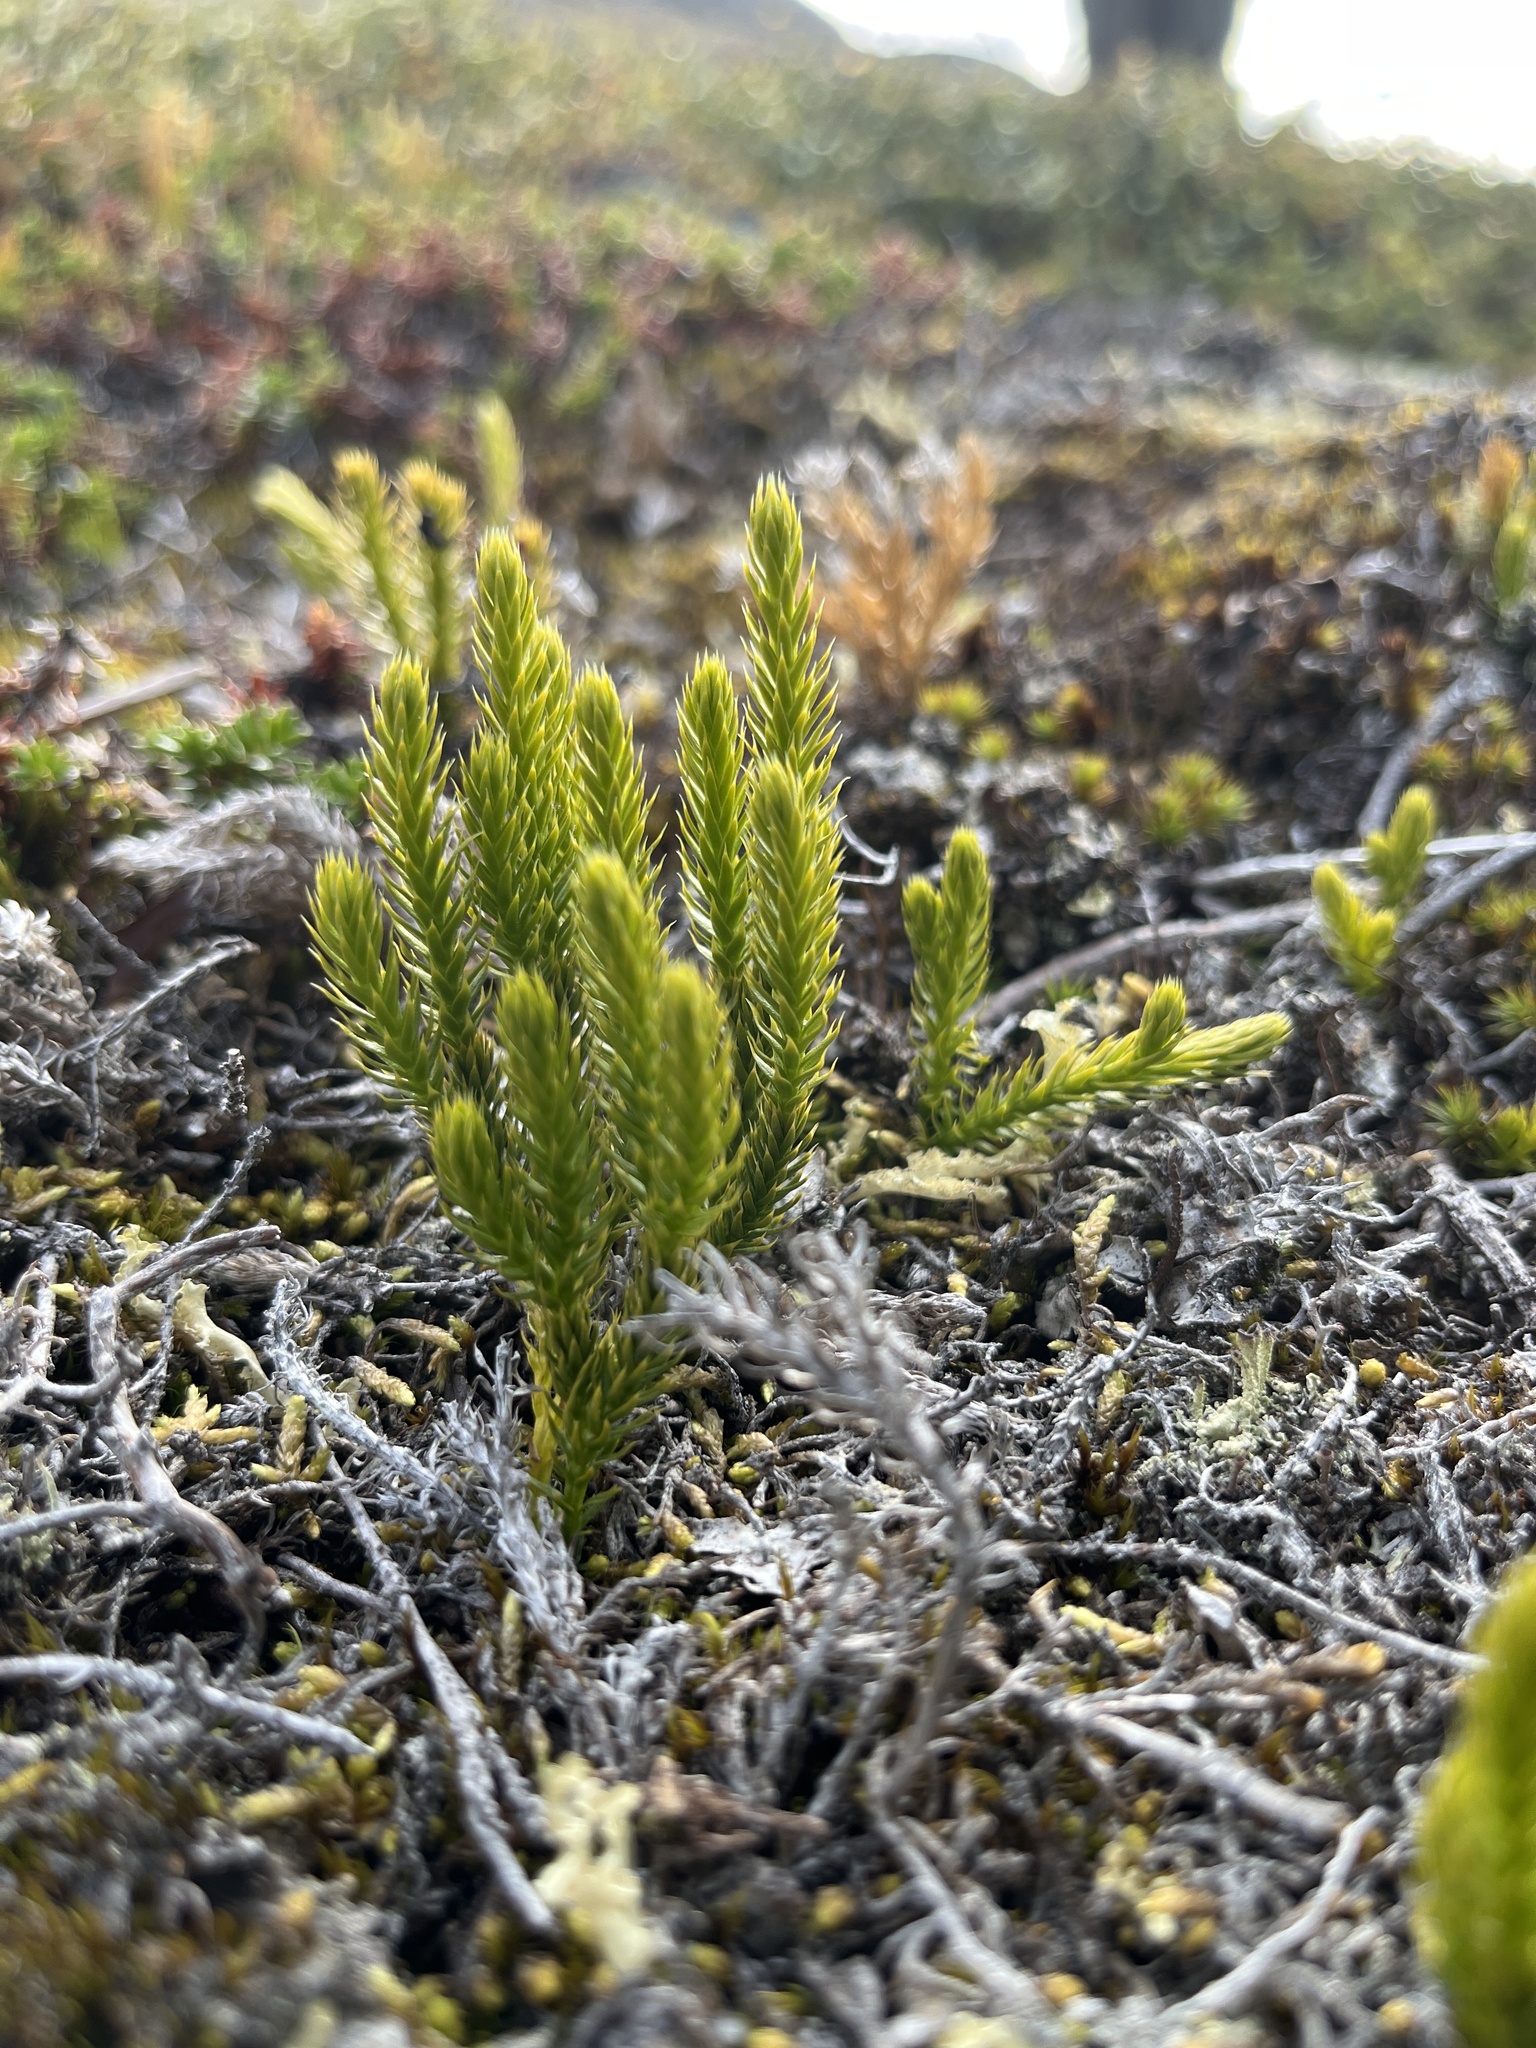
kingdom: Plantae
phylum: Tracheophyta
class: Lycopodiopsida
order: Lycopodiales
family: Lycopodiaceae
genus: Spinulum
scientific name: Spinulum annotinum
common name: Interrupted club-moss
